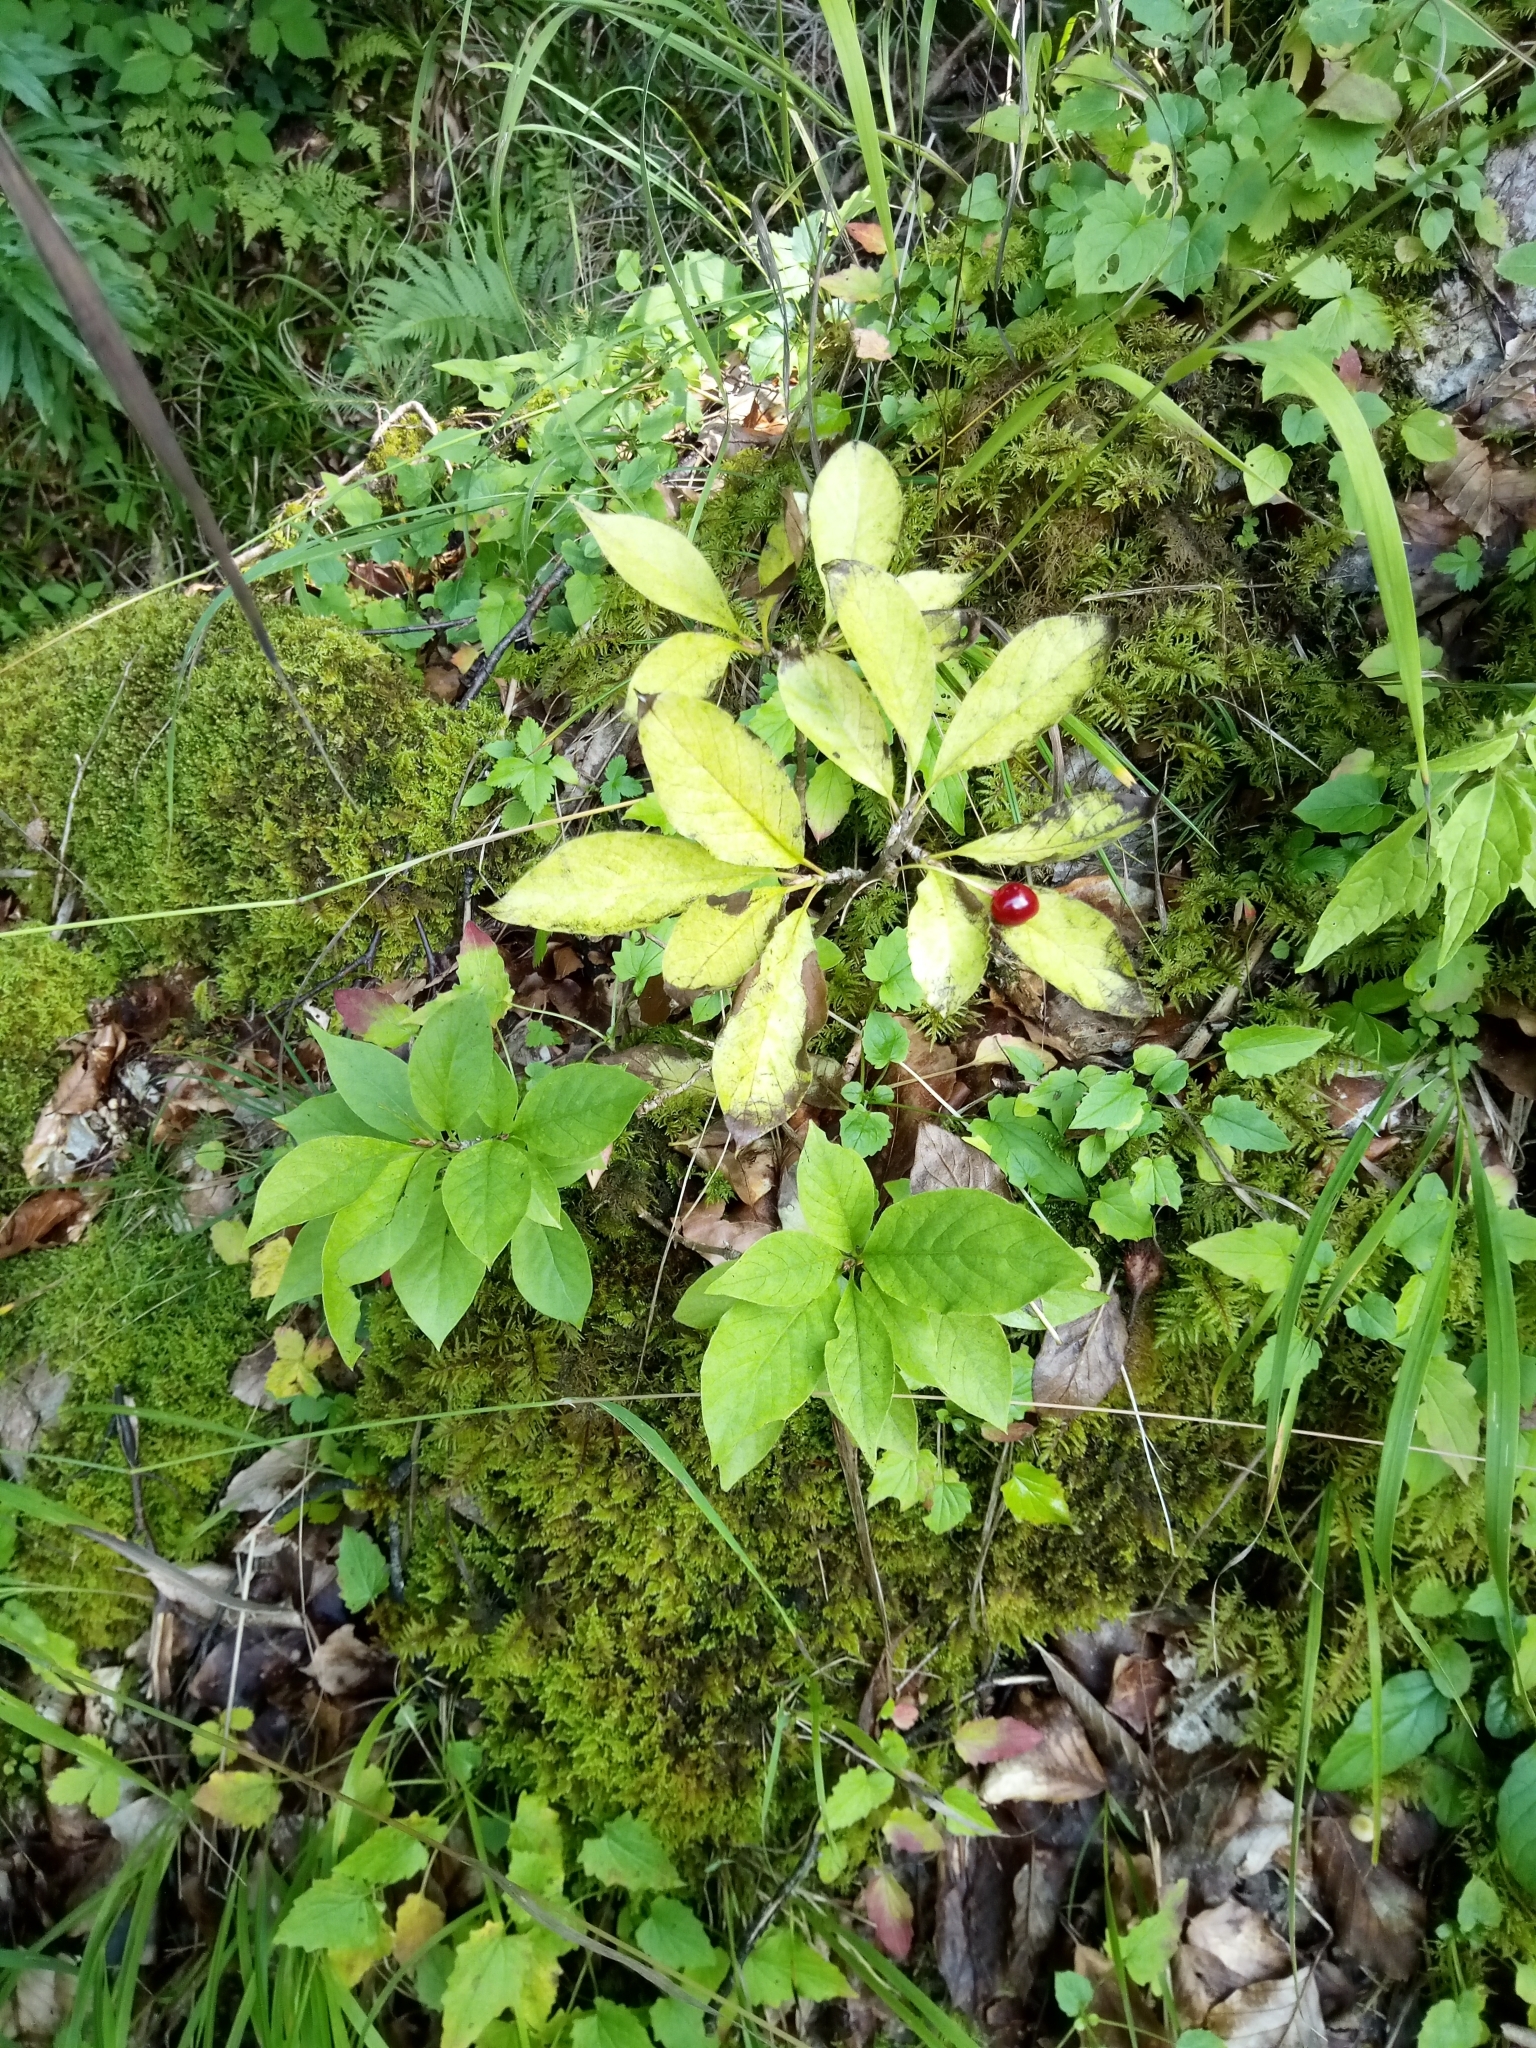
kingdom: Plantae
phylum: Tracheophyta
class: Magnoliopsida
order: Dipsacales
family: Caprifoliaceae
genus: Lonicera
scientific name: Lonicera alpigena
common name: Alpine honeysuckle
